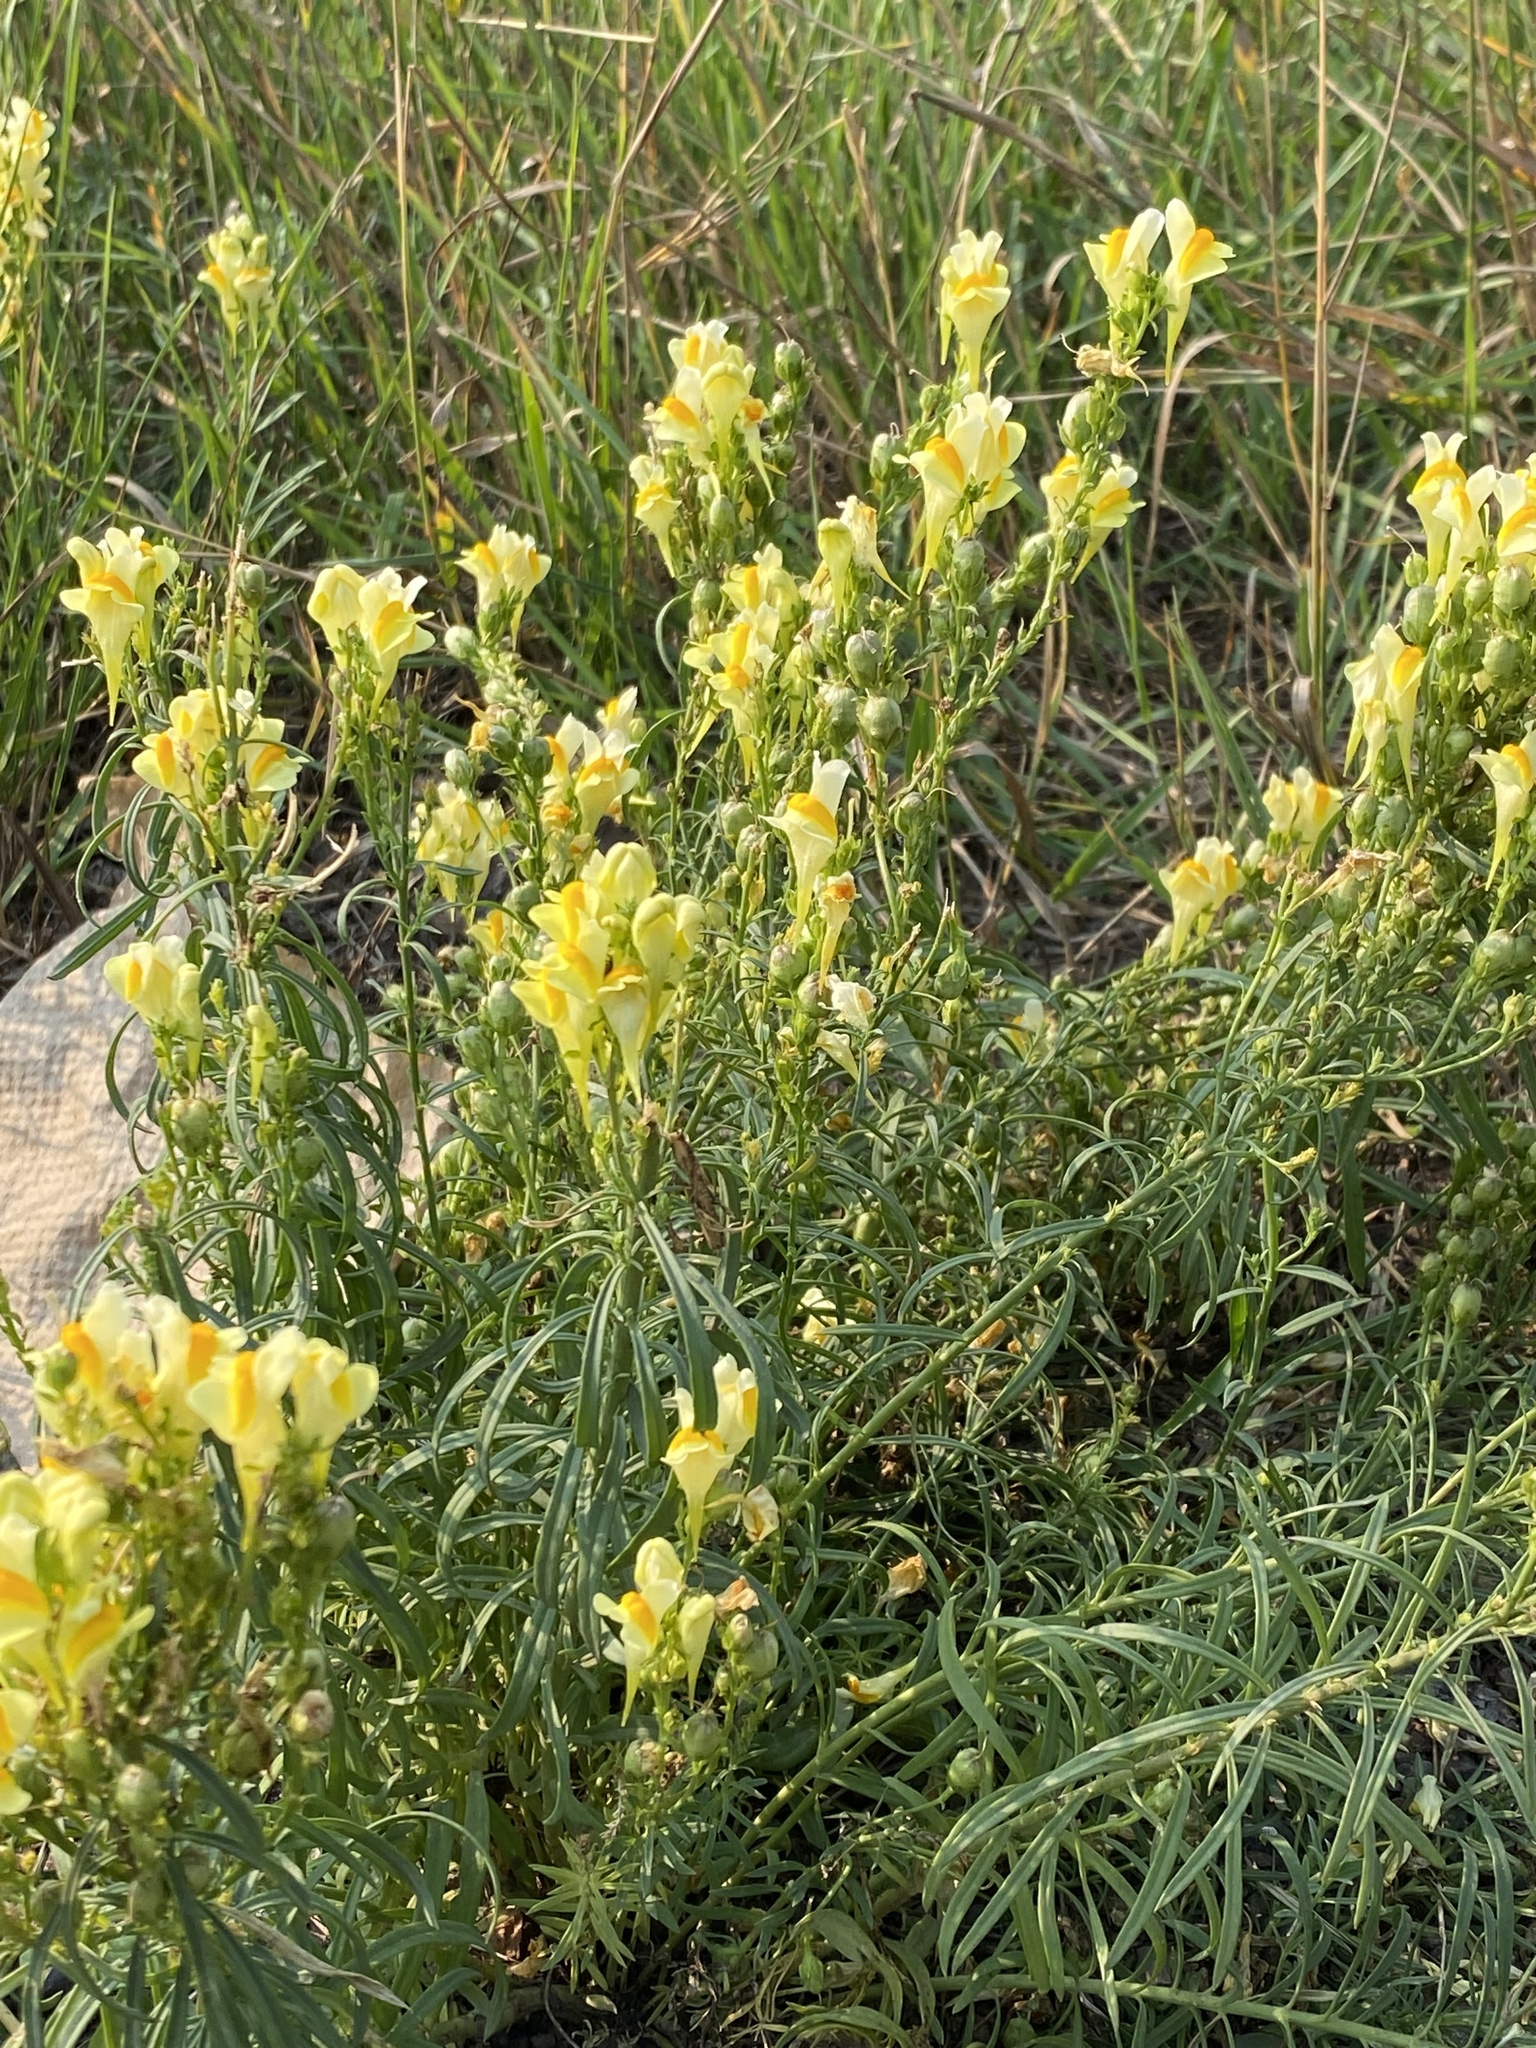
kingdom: Plantae
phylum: Tracheophyta
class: Magnoliopsida
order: Lamiales
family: Plantaginaceae
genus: Linaria
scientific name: Linaria vulgaris
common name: Butter and eggs
